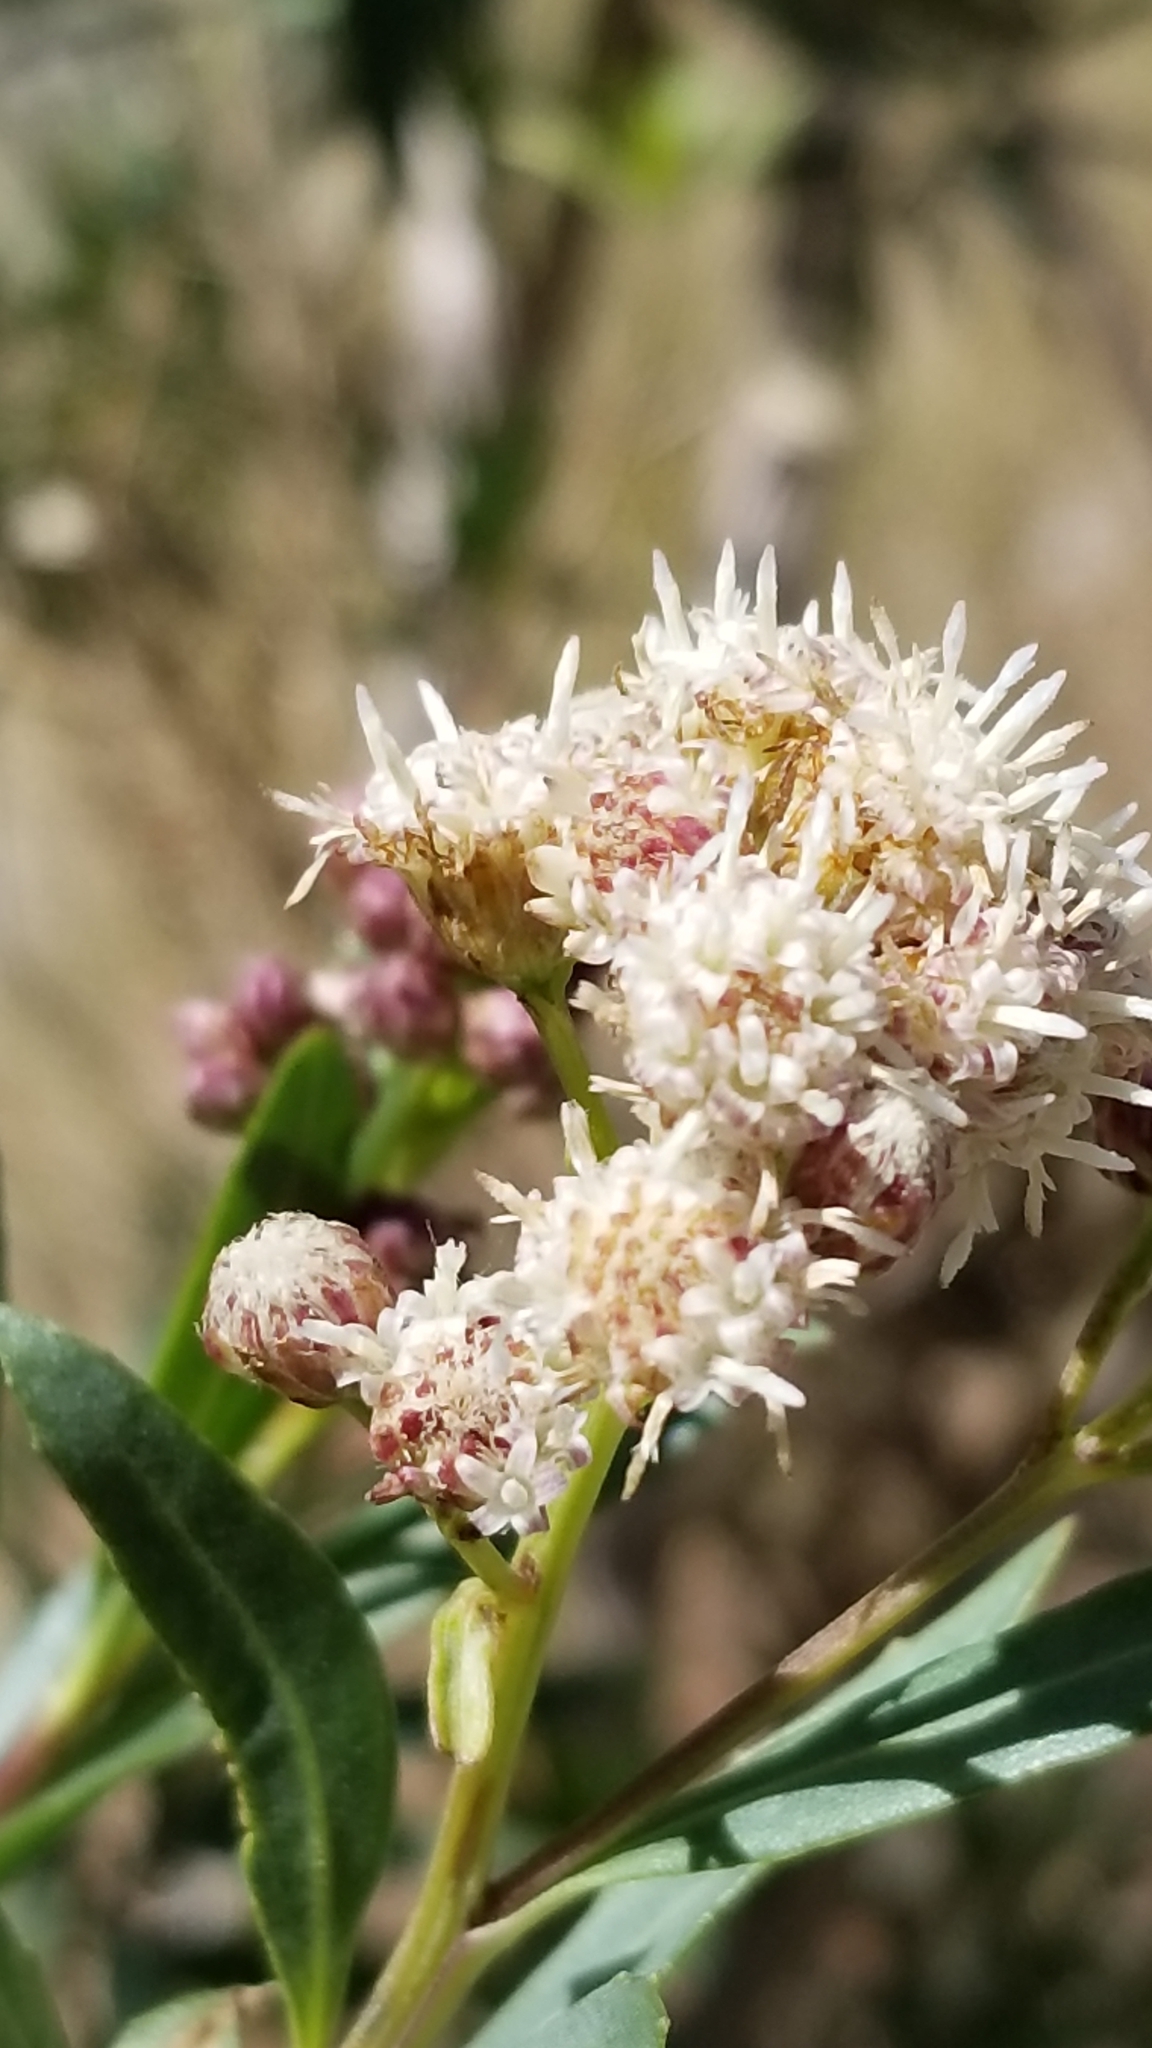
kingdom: Plantae
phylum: Tracheophyta
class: Magnoliopsida
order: Asterales
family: Asteraceae
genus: Baccharis
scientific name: Baccharis salicifolia
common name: Sticky baccharis
